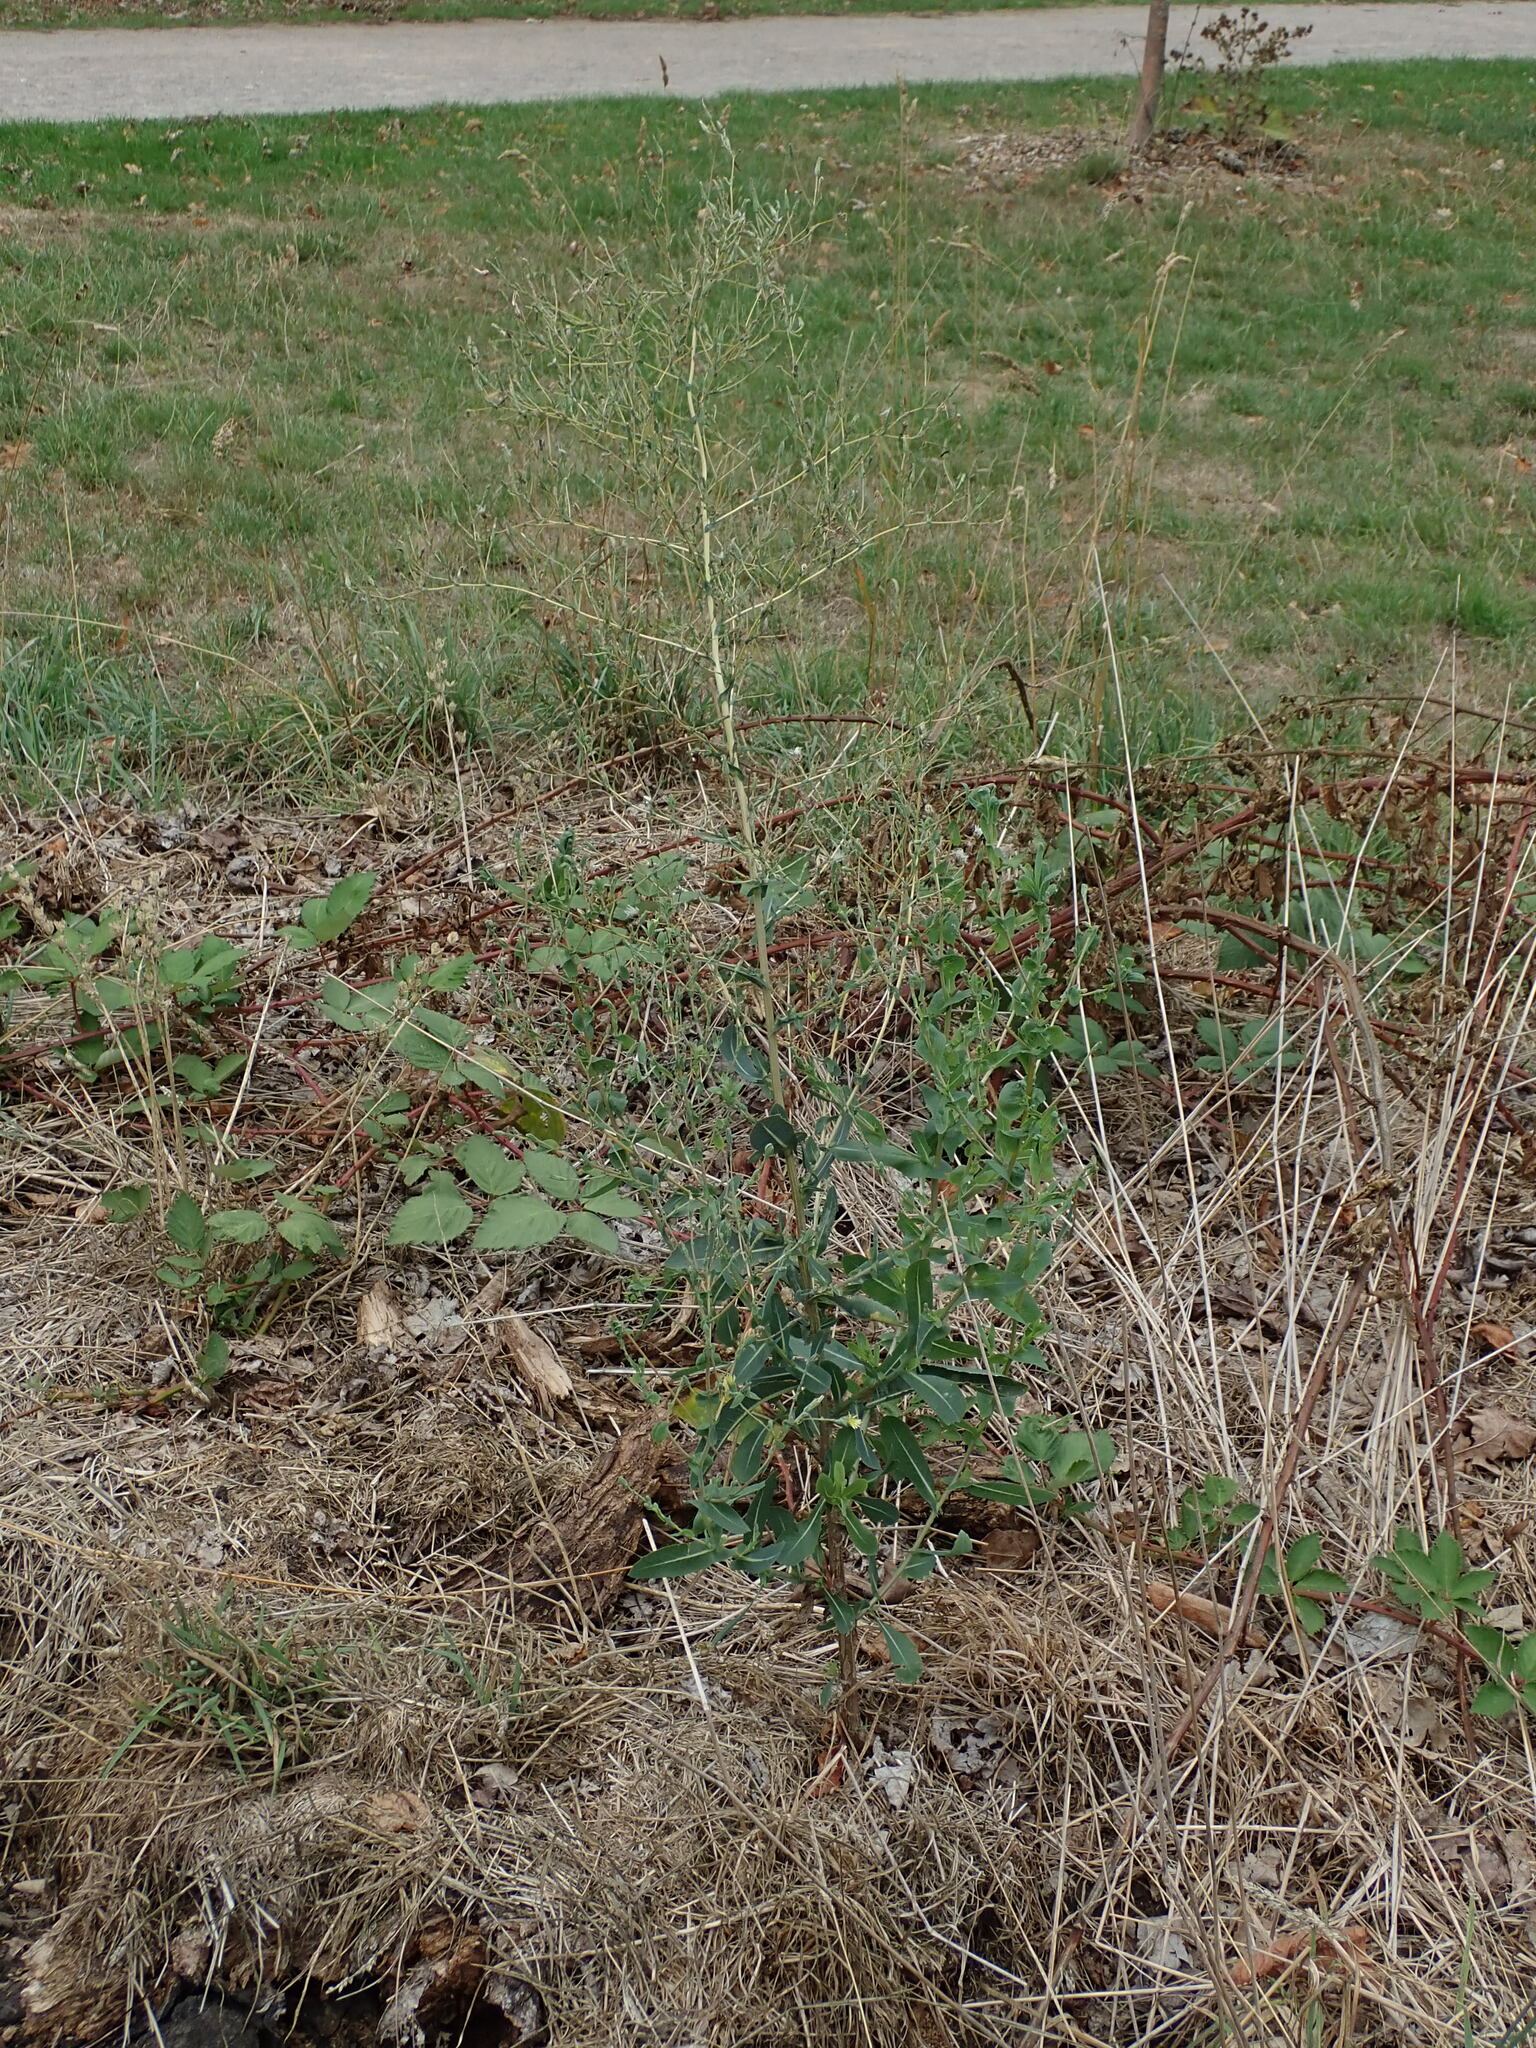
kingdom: Plantae
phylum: Tracheophyta
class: Magnoliopsida
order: Asterales
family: Asteraceae
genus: Lactuca
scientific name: Lactuca serriola
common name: Prickly lettuce
